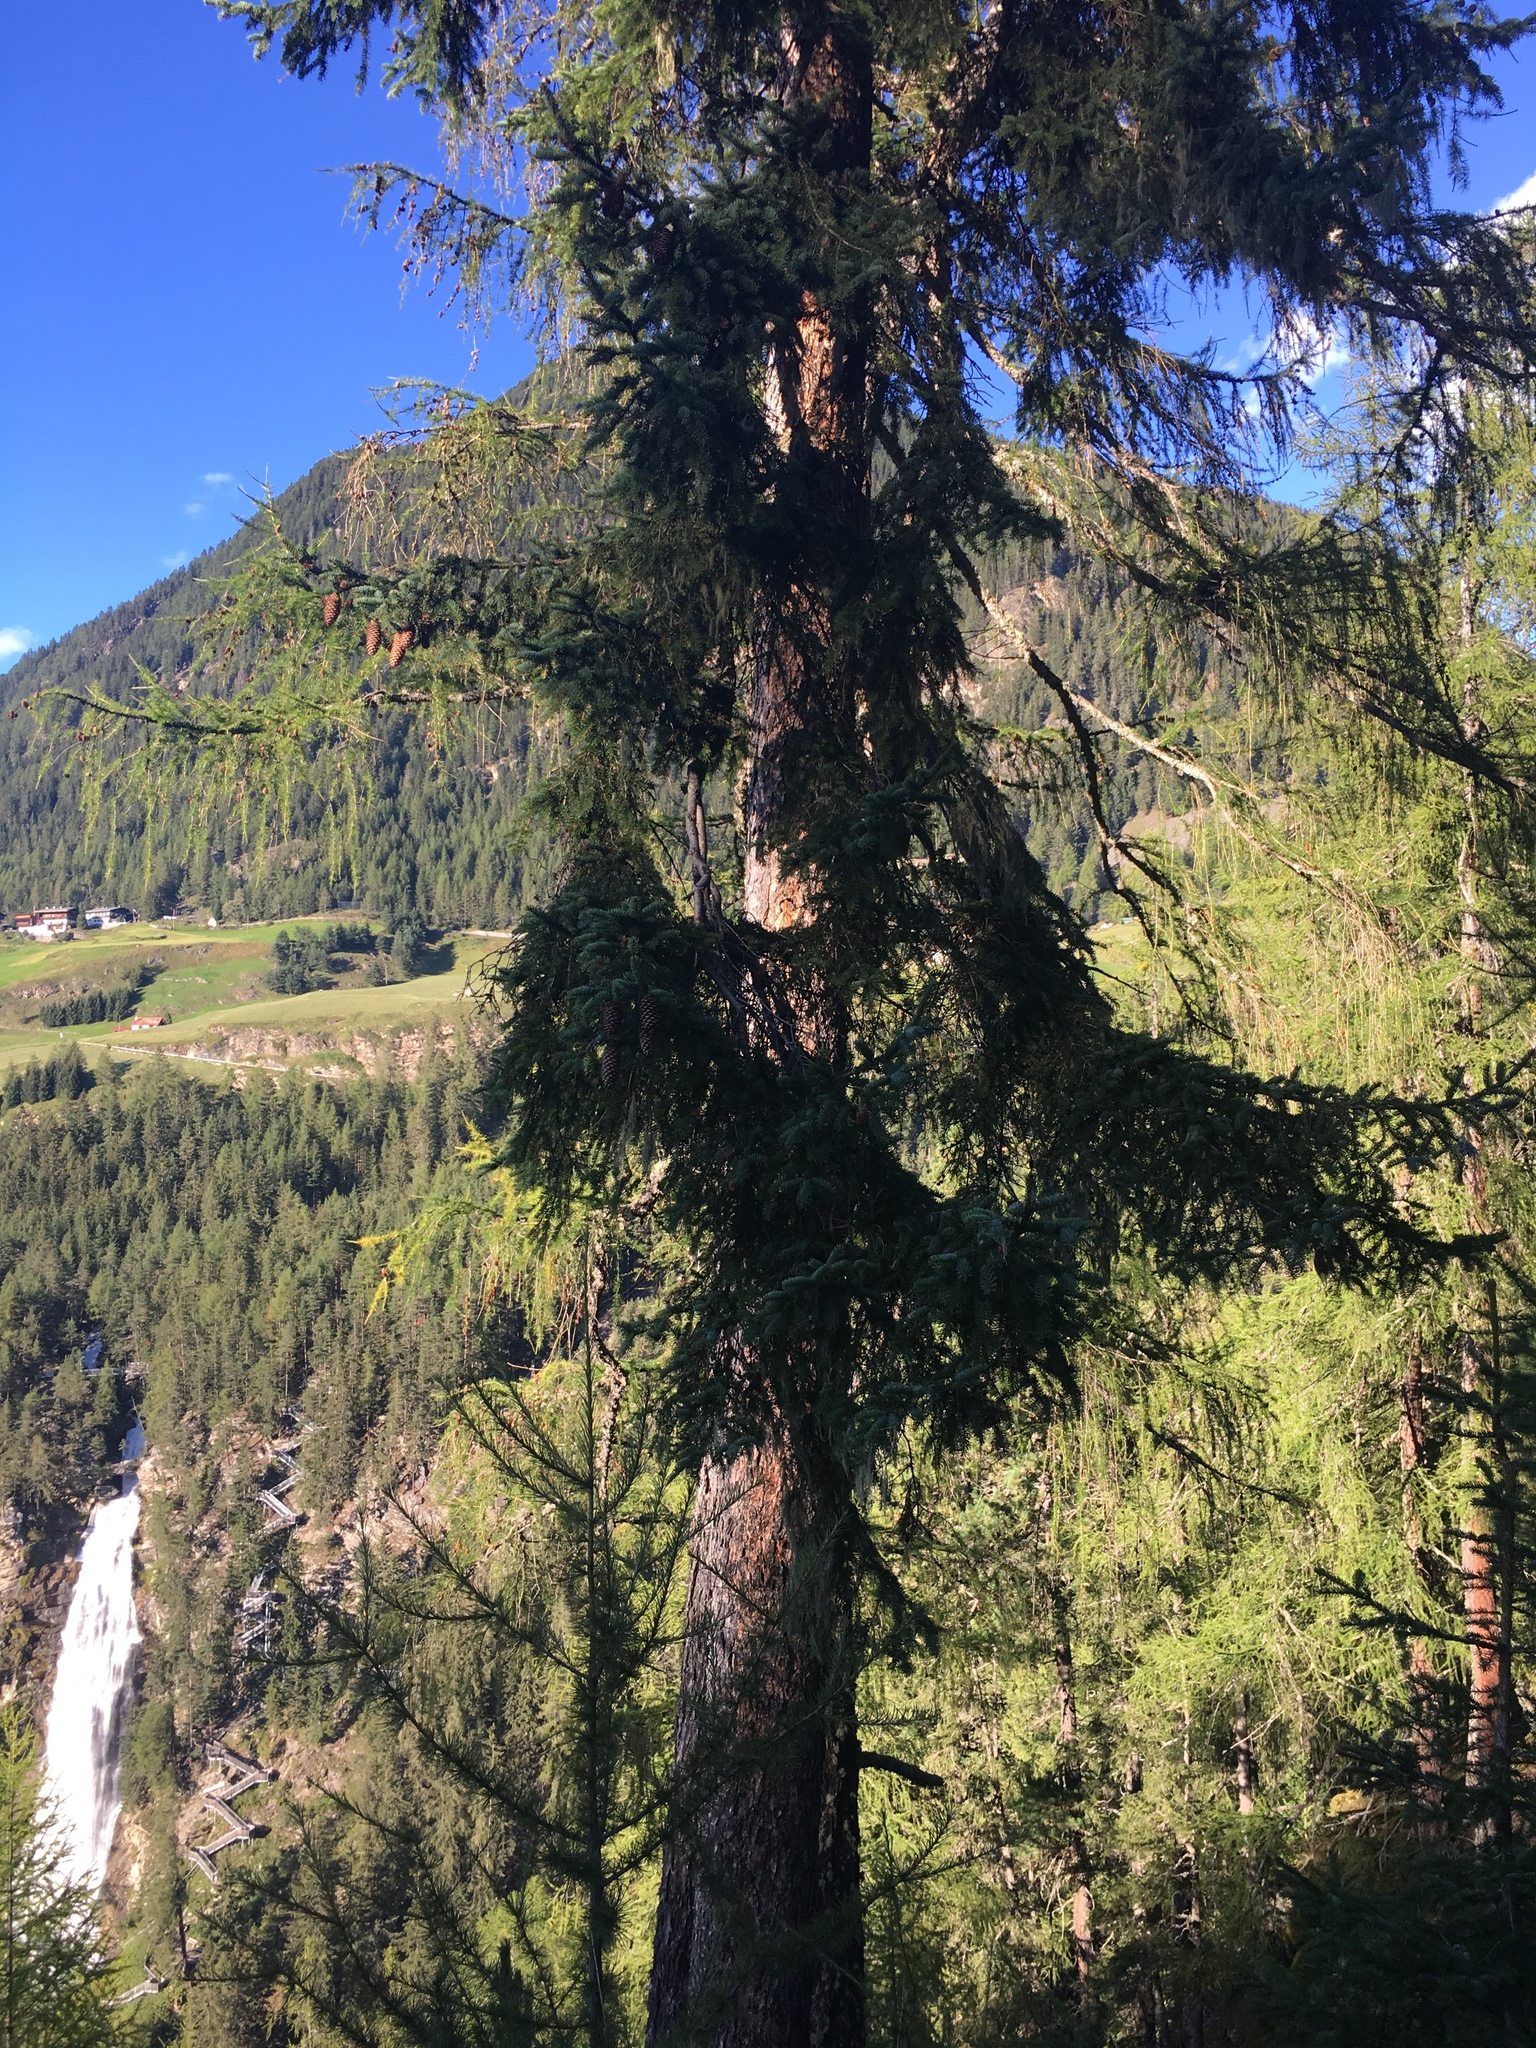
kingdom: Plantae
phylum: Tracheophyta
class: Pinopsida
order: Pinales
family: Pinaceae
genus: Picea
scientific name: Picea abies
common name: Norway spruce
